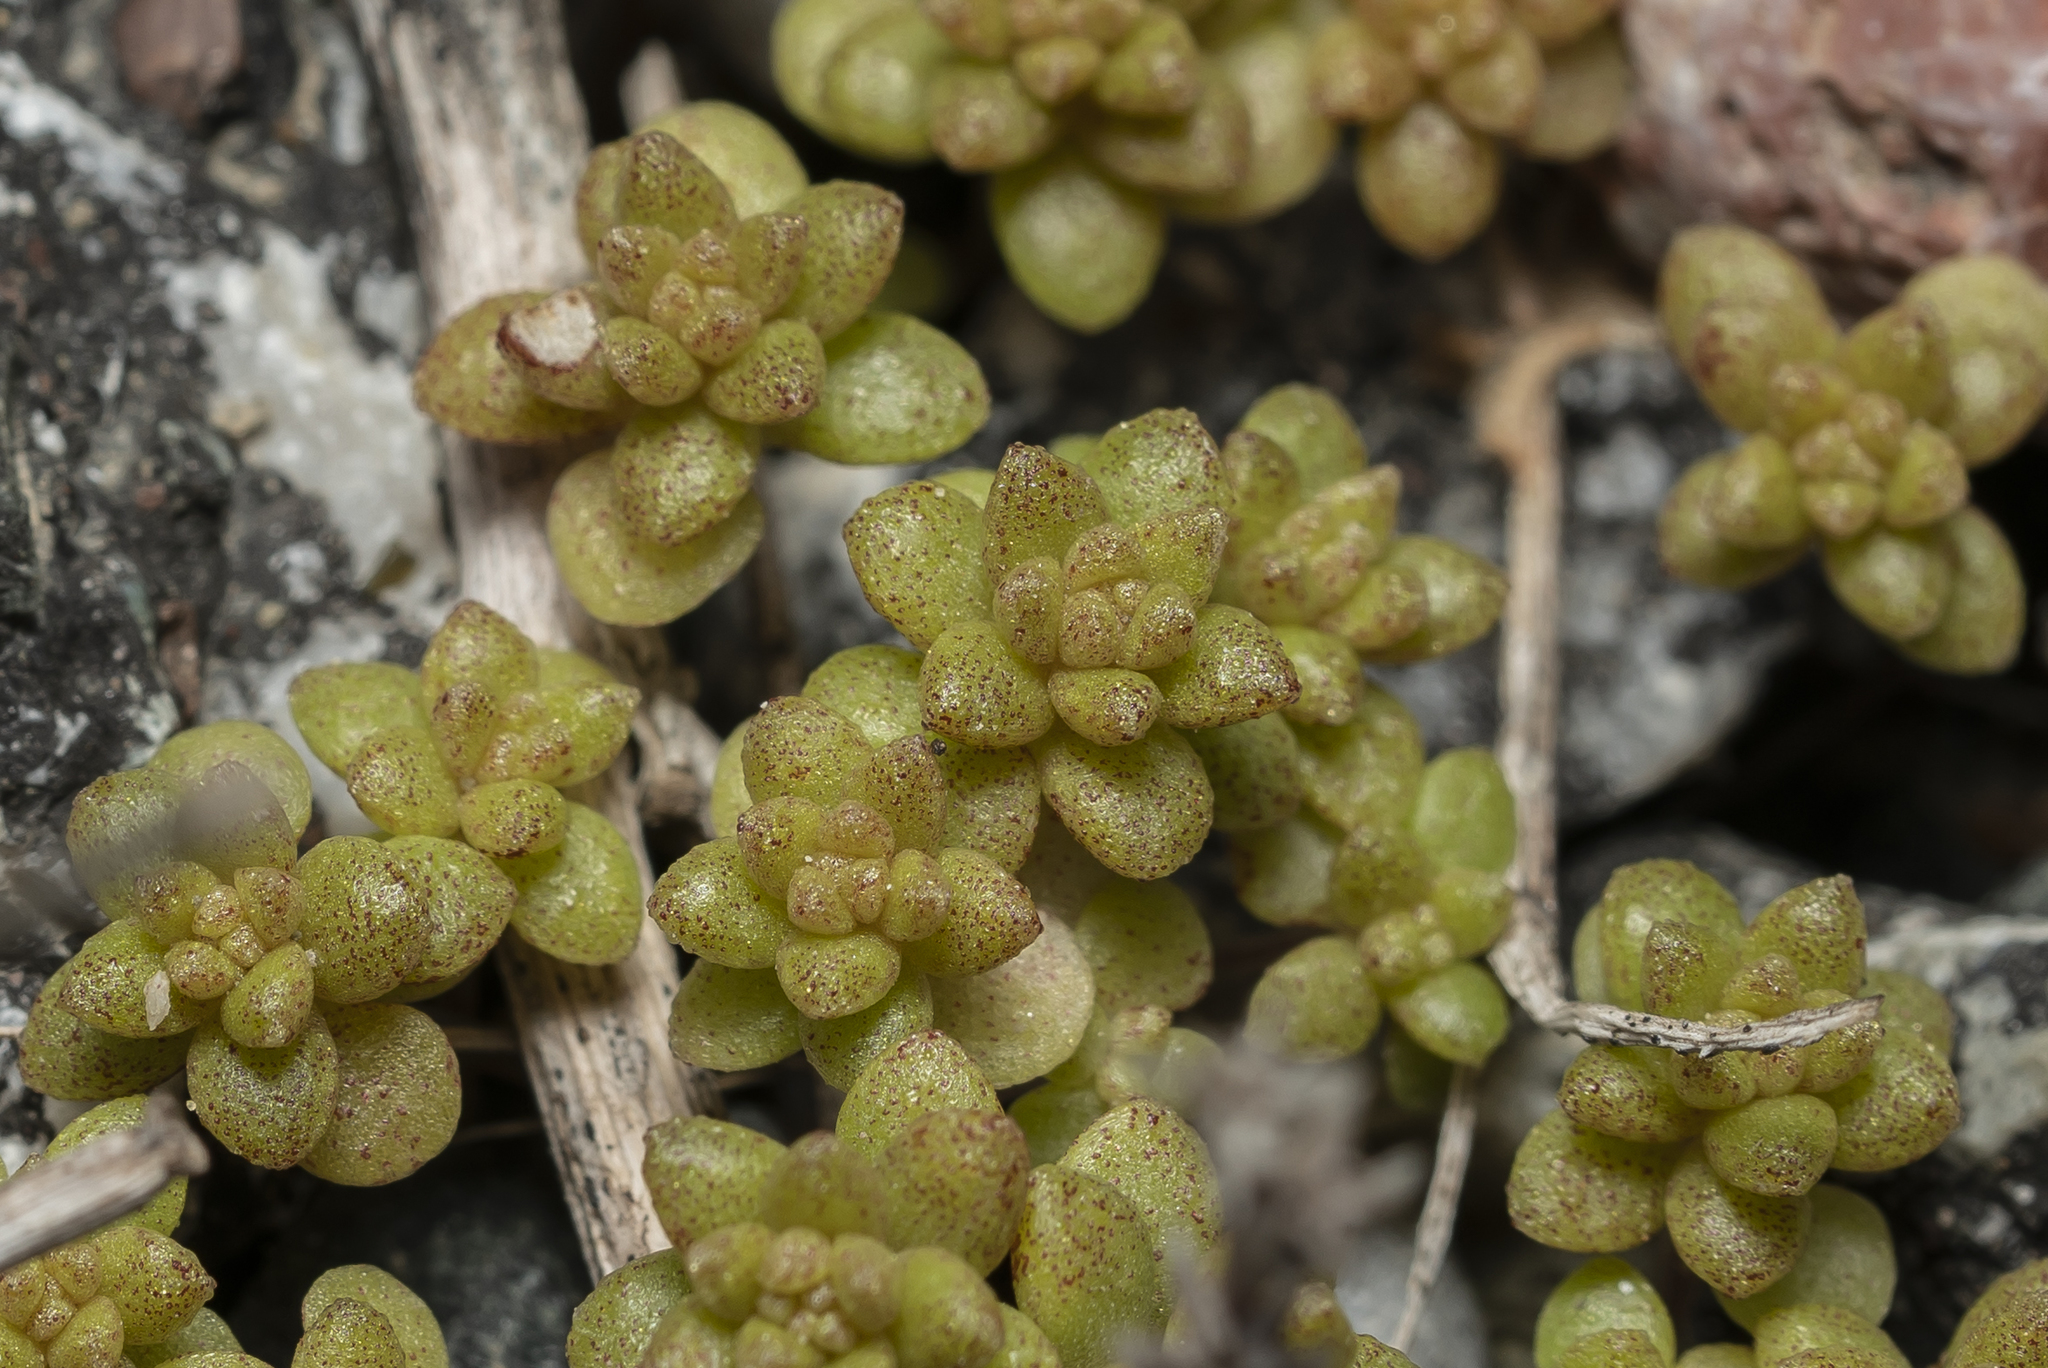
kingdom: Plantae
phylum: Tracheophyta
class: Magnoliopsida
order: Saxifragales
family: Crassulaceae
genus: Sedum
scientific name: Sedum litoreum
